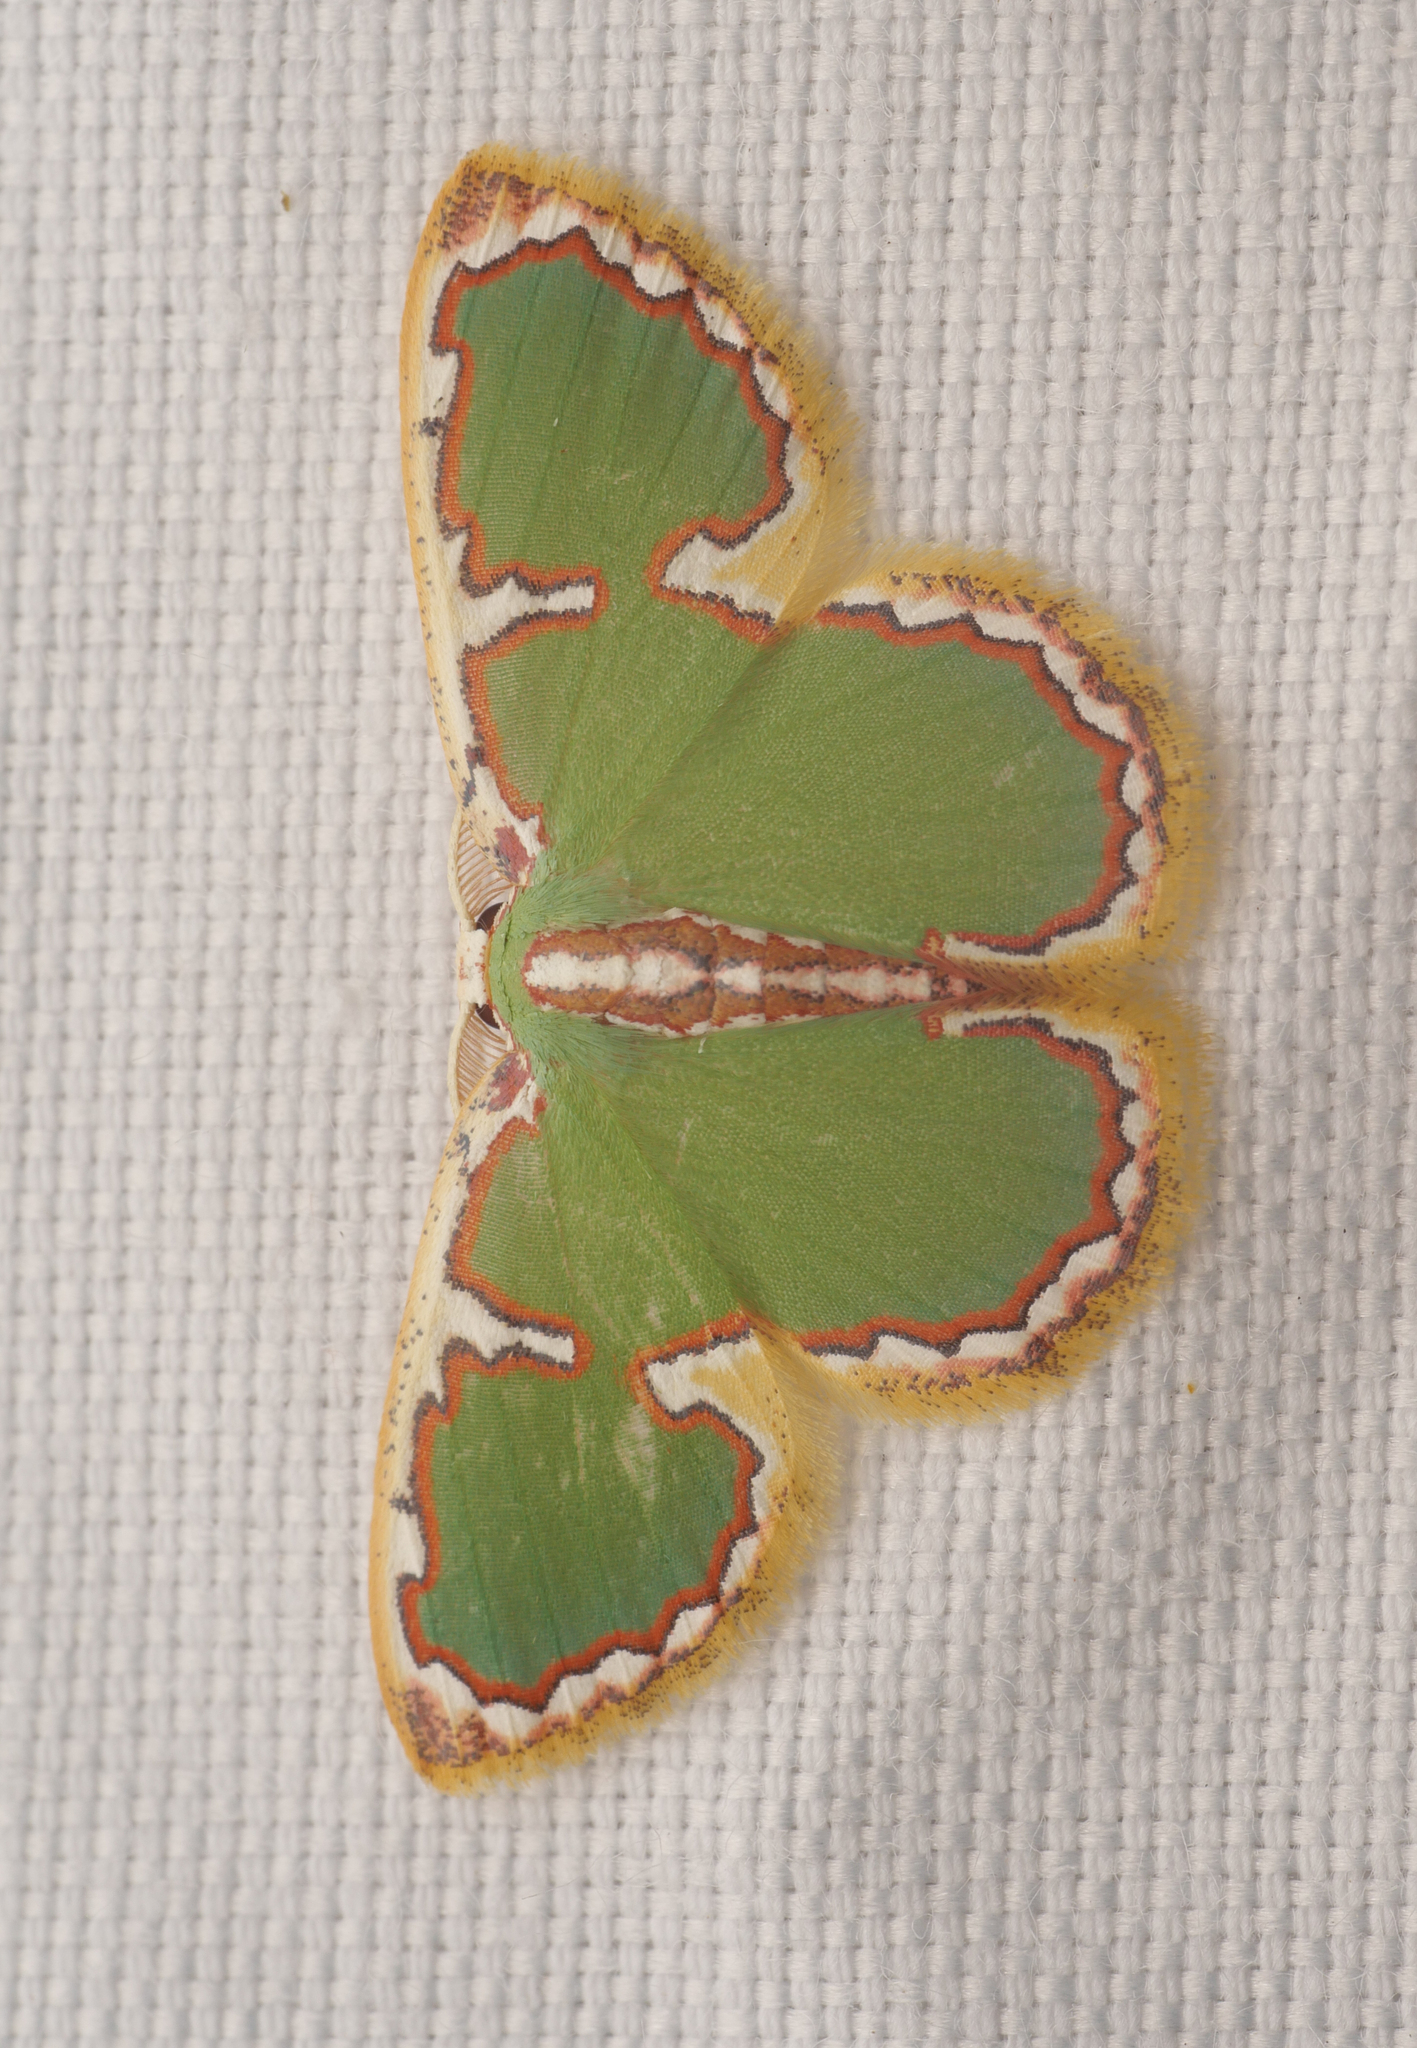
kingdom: Animalia
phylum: Arthropoda
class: Insecta
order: Lepidoptera
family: Geometridae
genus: Comostola
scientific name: Comostola inouei
